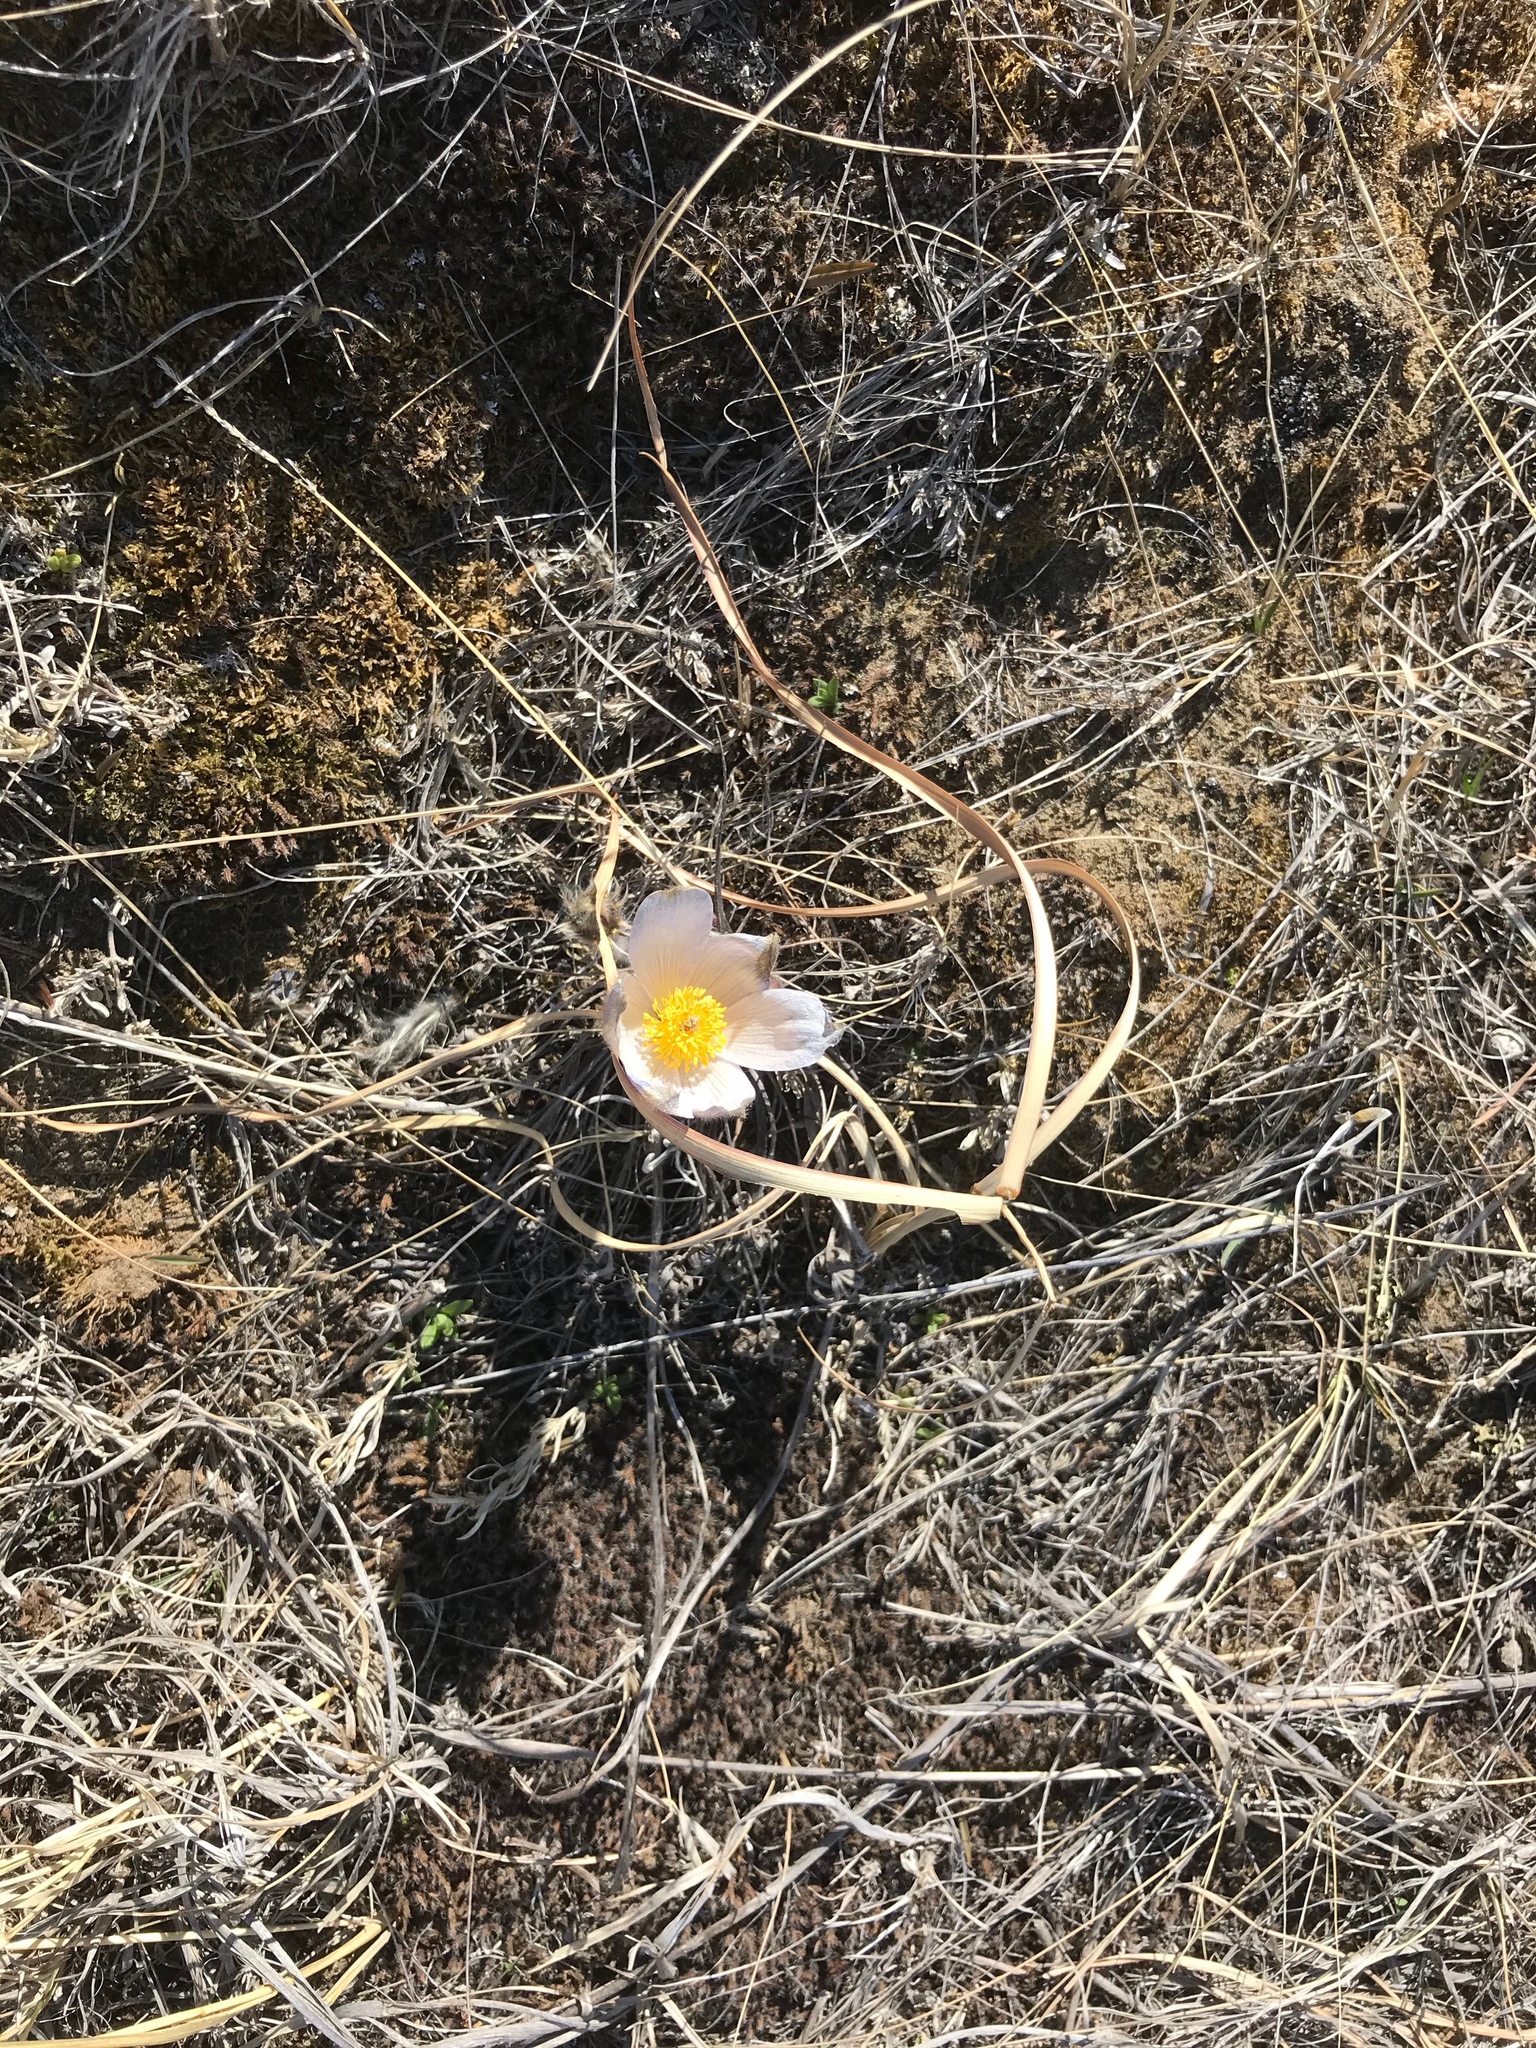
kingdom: Plantae
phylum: Tracheophyta
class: Magnoliopsida
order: Ranunculales
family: Ranunculaceae
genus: Pulsatilla
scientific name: Pulsatilla nuttalliana
